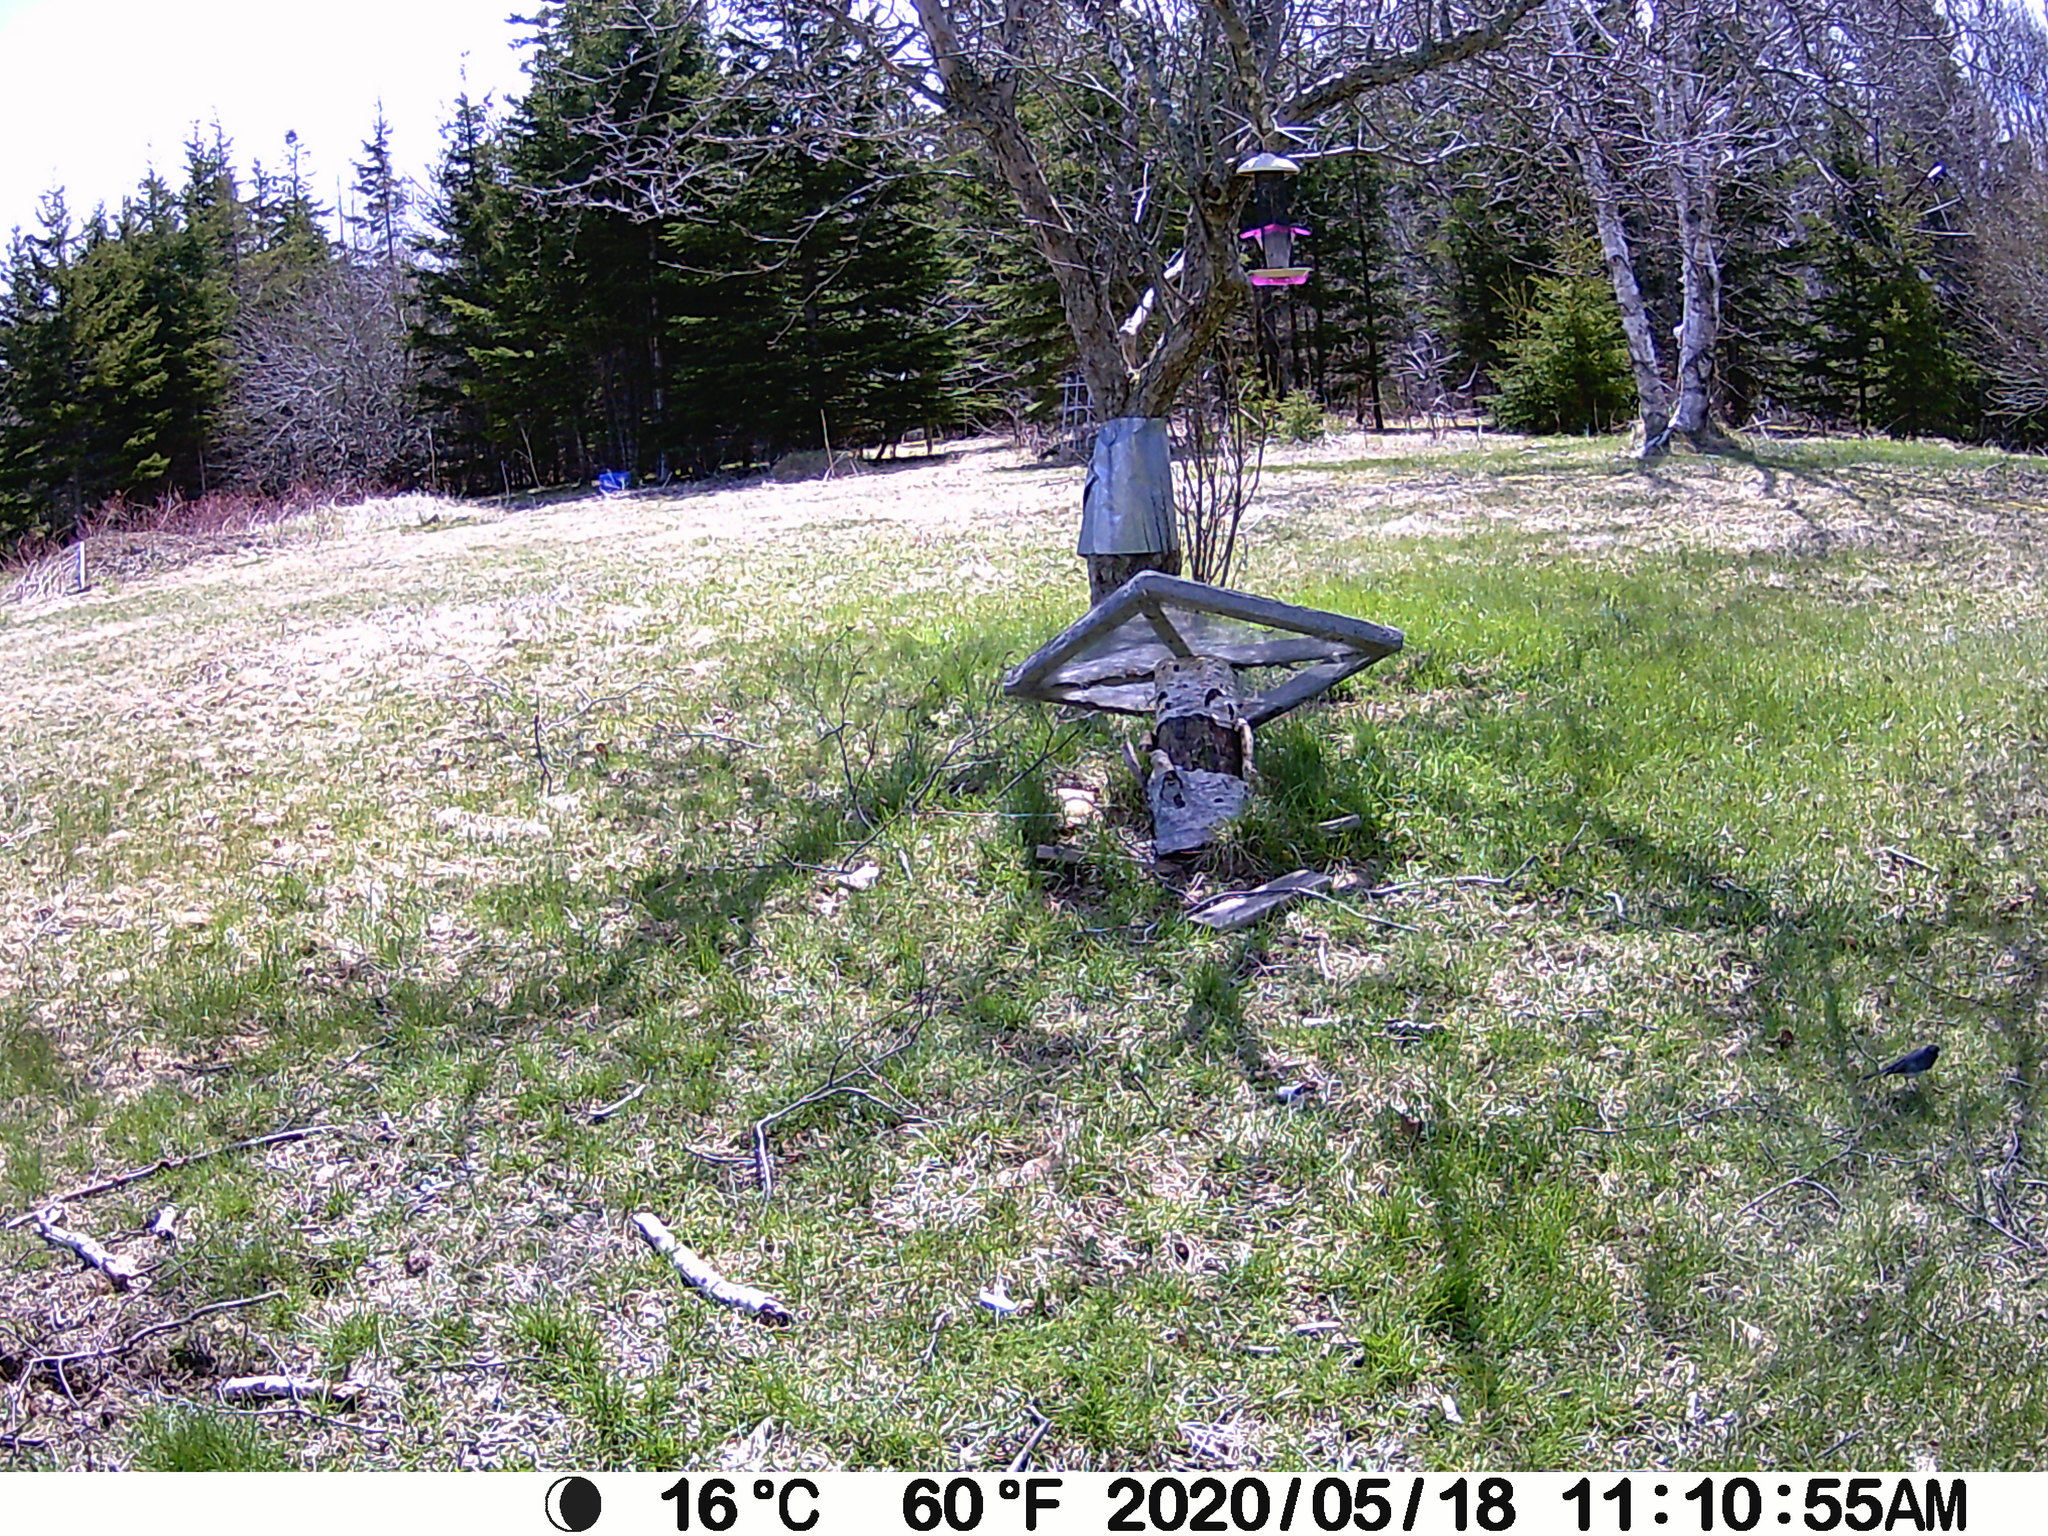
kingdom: Animalia
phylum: Chordata
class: Aves
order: Passeriformes
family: Passerellidae
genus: Junco
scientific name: Junco hyemalis
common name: Dark-eyed junco
